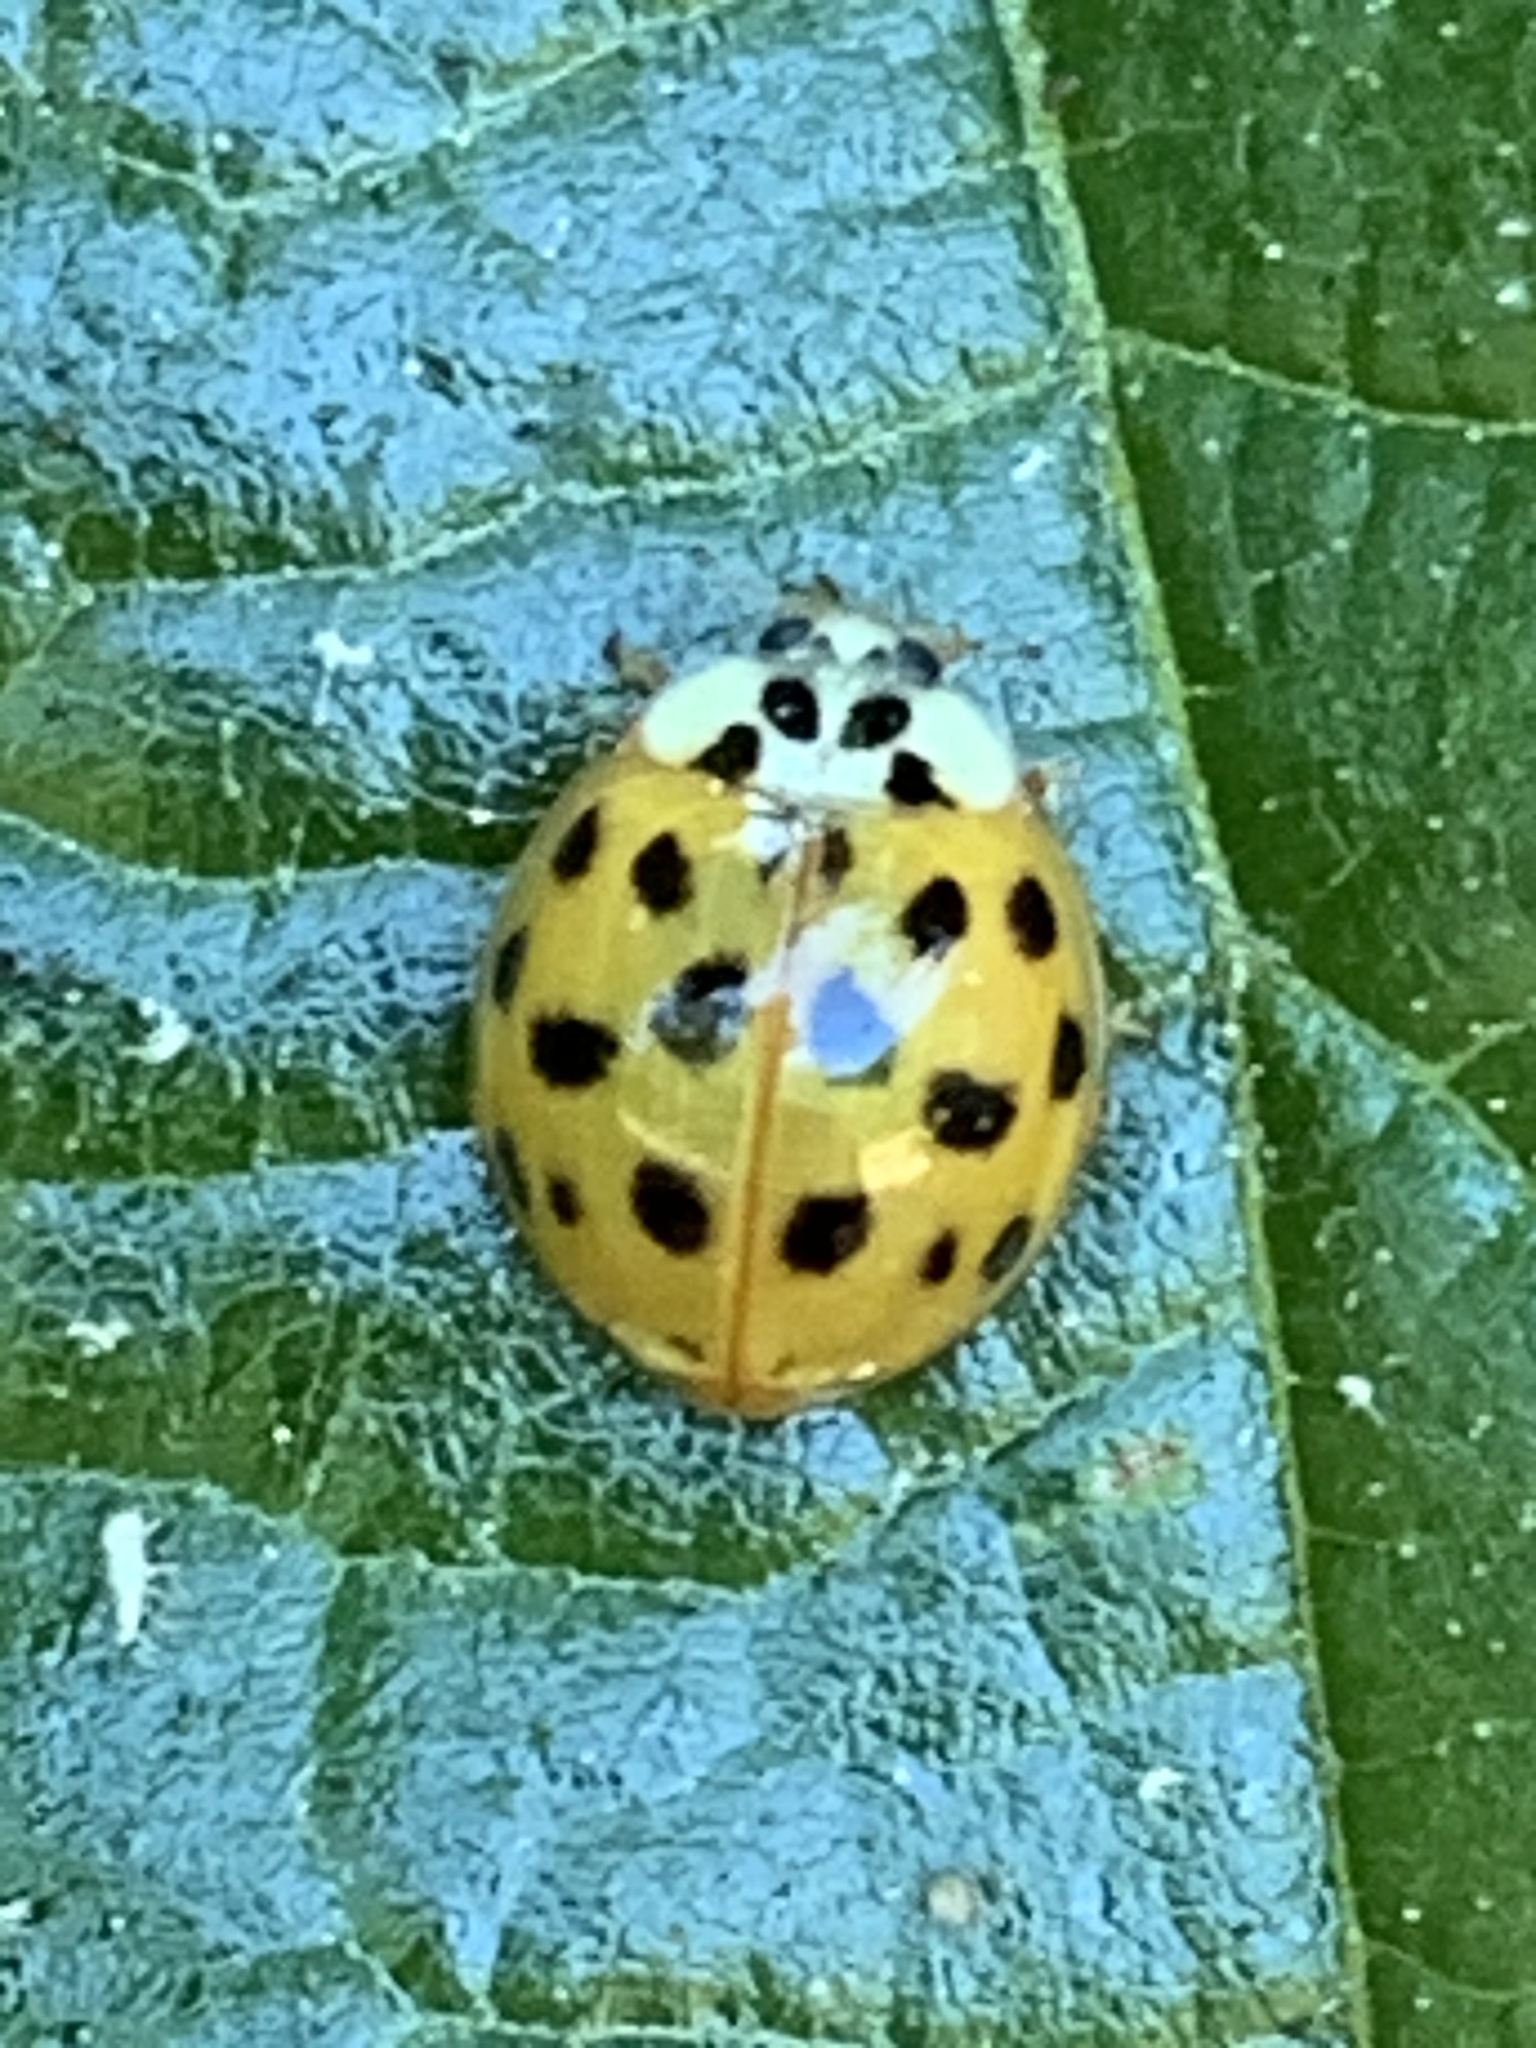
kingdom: Animalia
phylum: Arthropoda
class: Insecta
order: Coleoptera
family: Coccinellidae
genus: Harmonia
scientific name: Harmonia axyridis
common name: Harlequin ladybird
